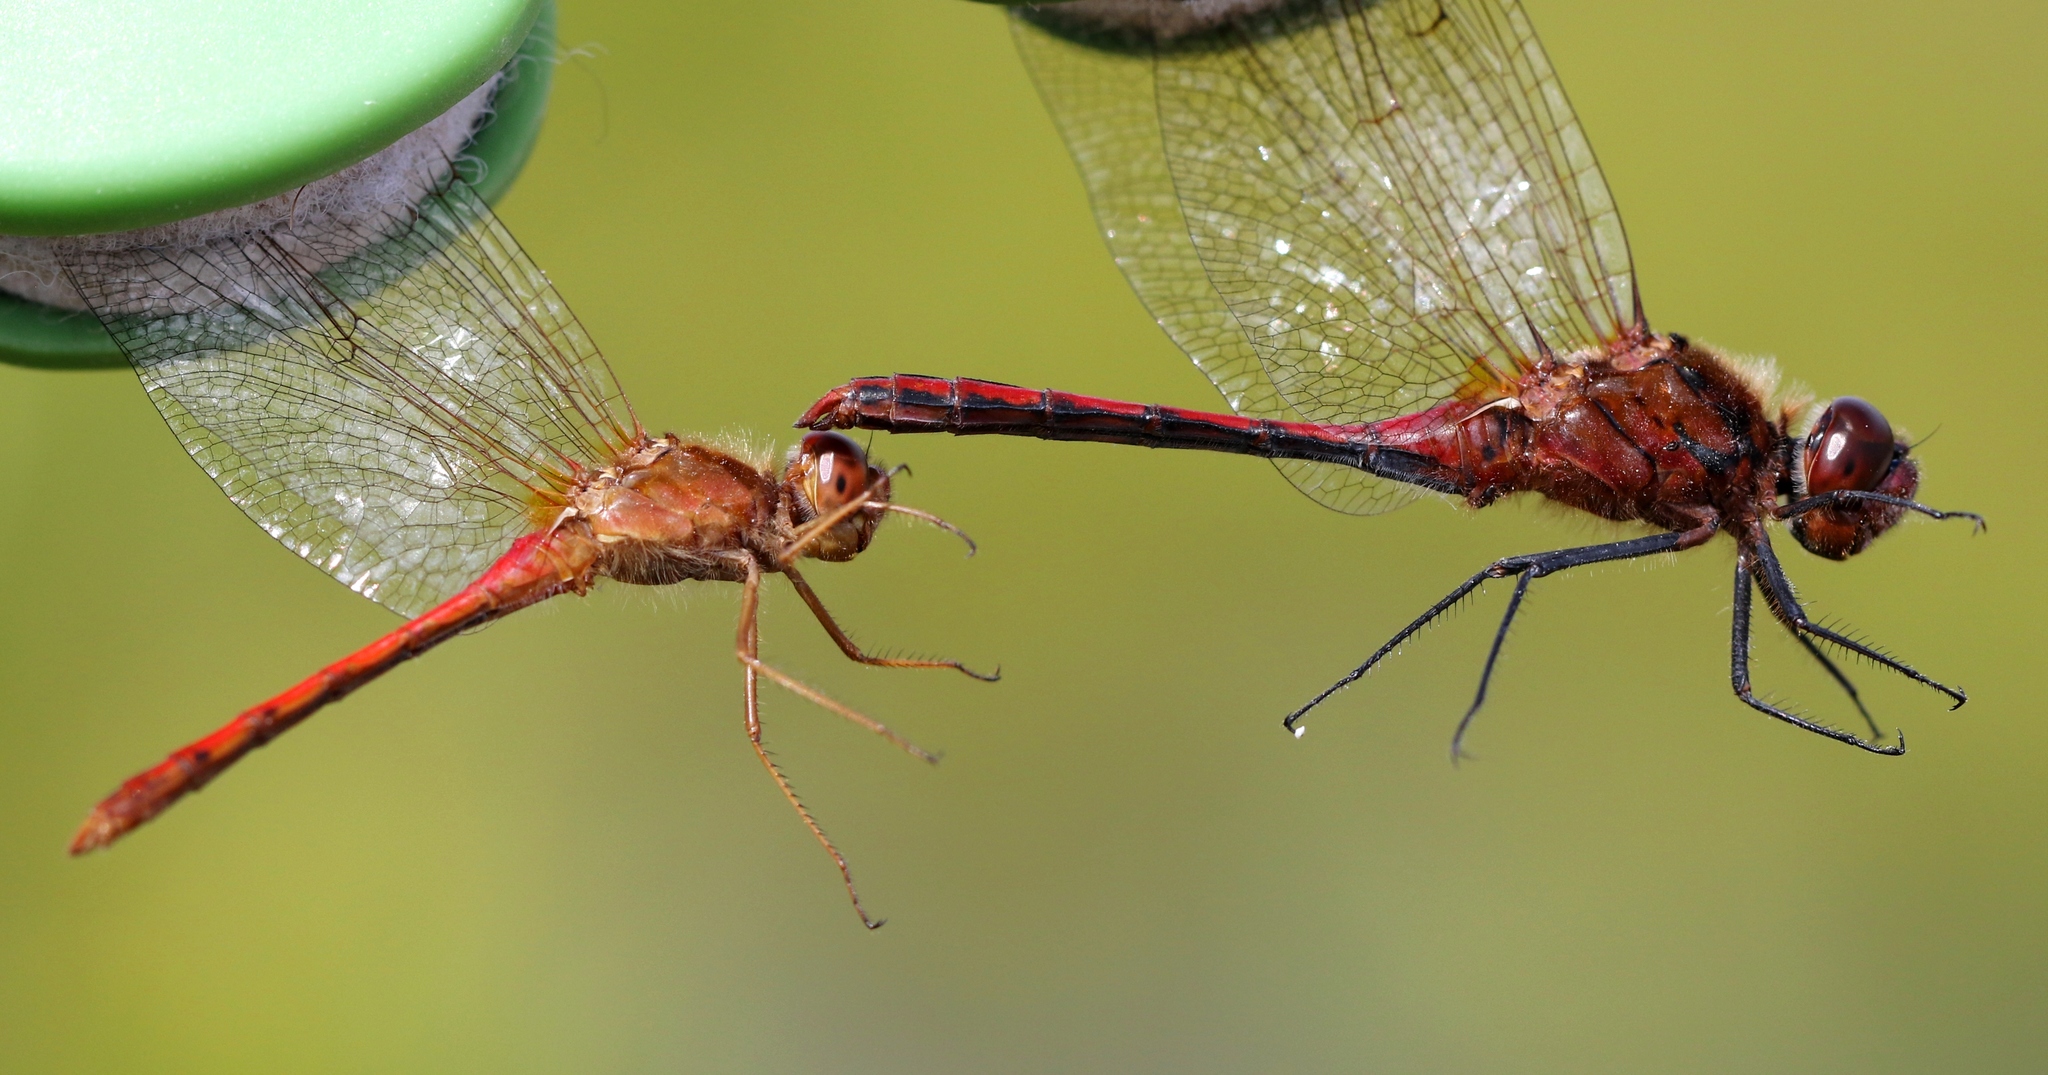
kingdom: Animalia
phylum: Arthropoda
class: Insecta
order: Odonata
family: Libellulidae
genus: Sympetrum
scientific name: Sympetrum costiferum
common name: Saffron-winged meadowhawk
